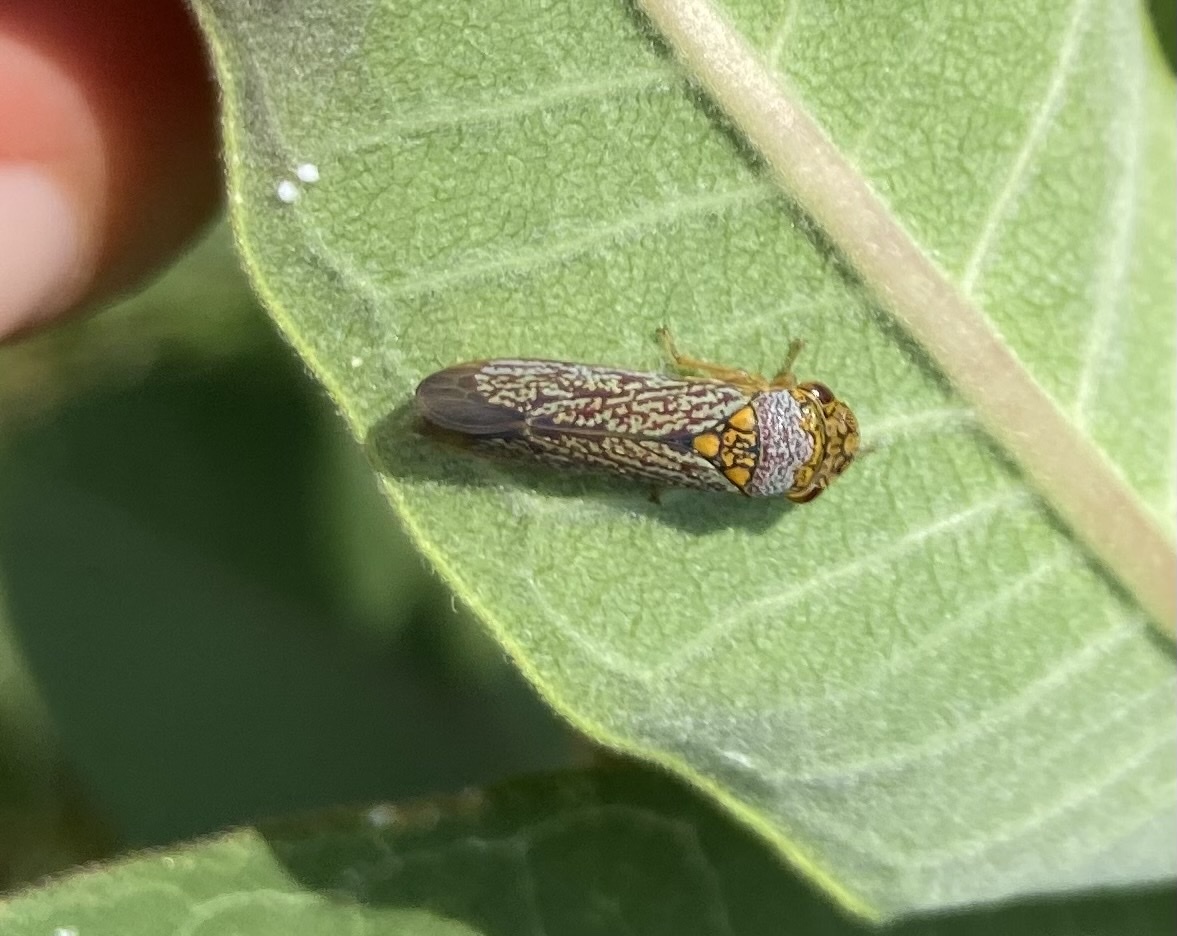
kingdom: Animalia
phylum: Arthropoda
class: Insecta
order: Hemiptera
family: Cicadellidae
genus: Oncometopia
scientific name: Oncometopia orbona
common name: Broad-headed sharpshooter
